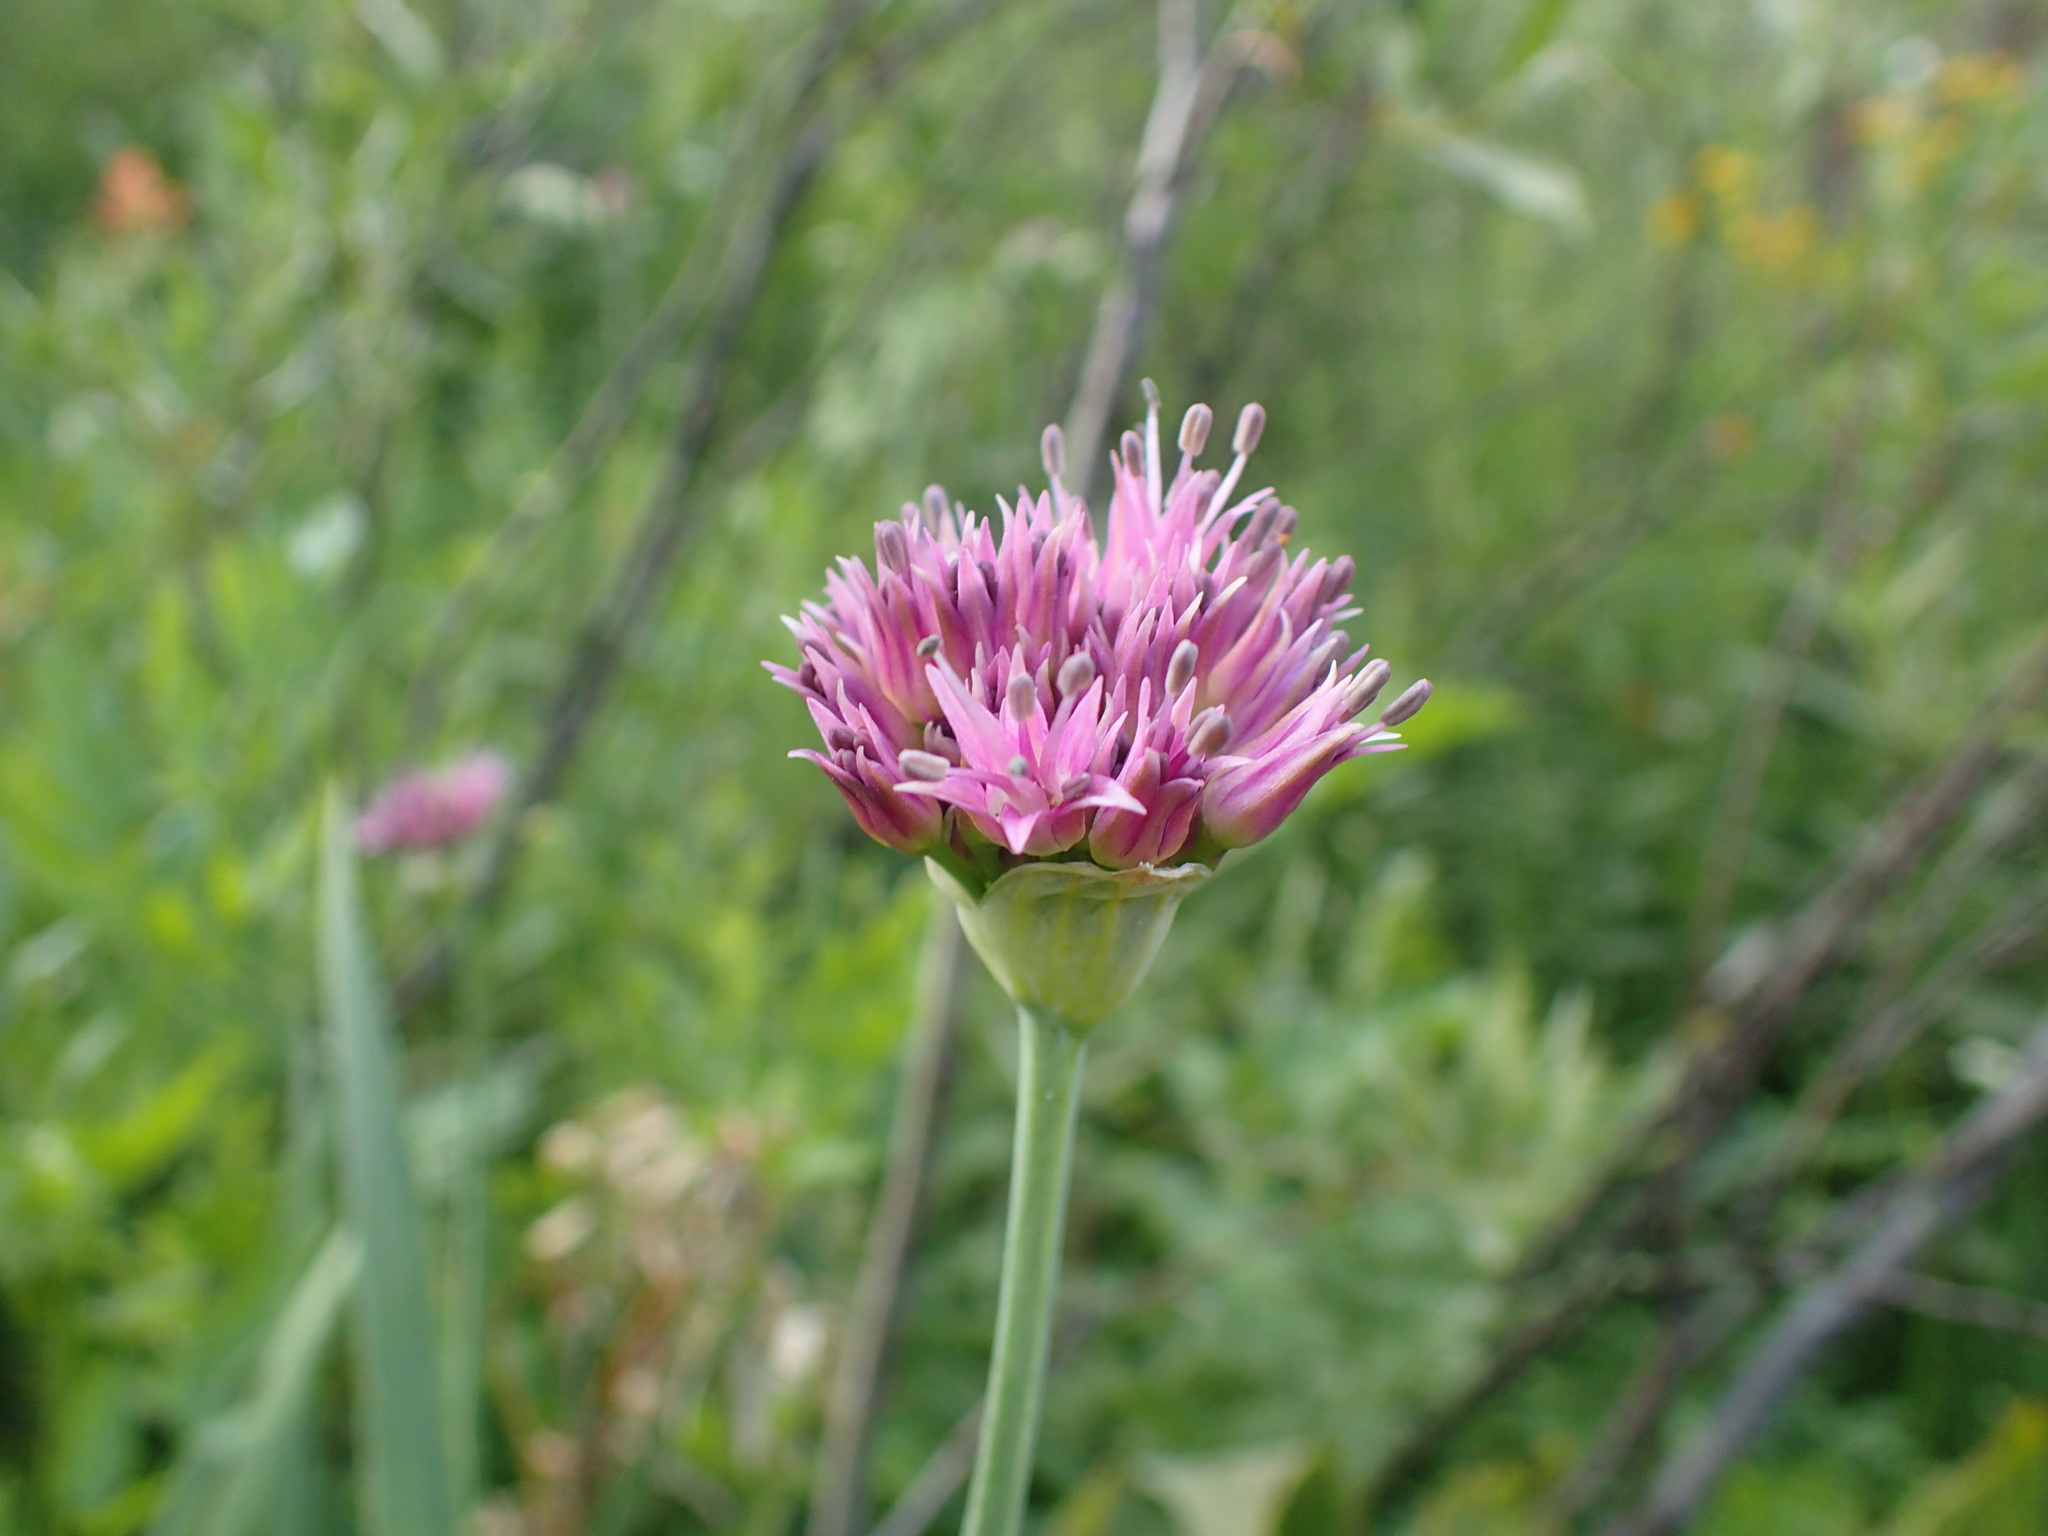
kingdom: Plantae
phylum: Tracheophyta
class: Liliopsida
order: Asparagales
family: Amaryllidaceae
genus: Allium
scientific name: Allium validum
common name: Pacific mountain onion
